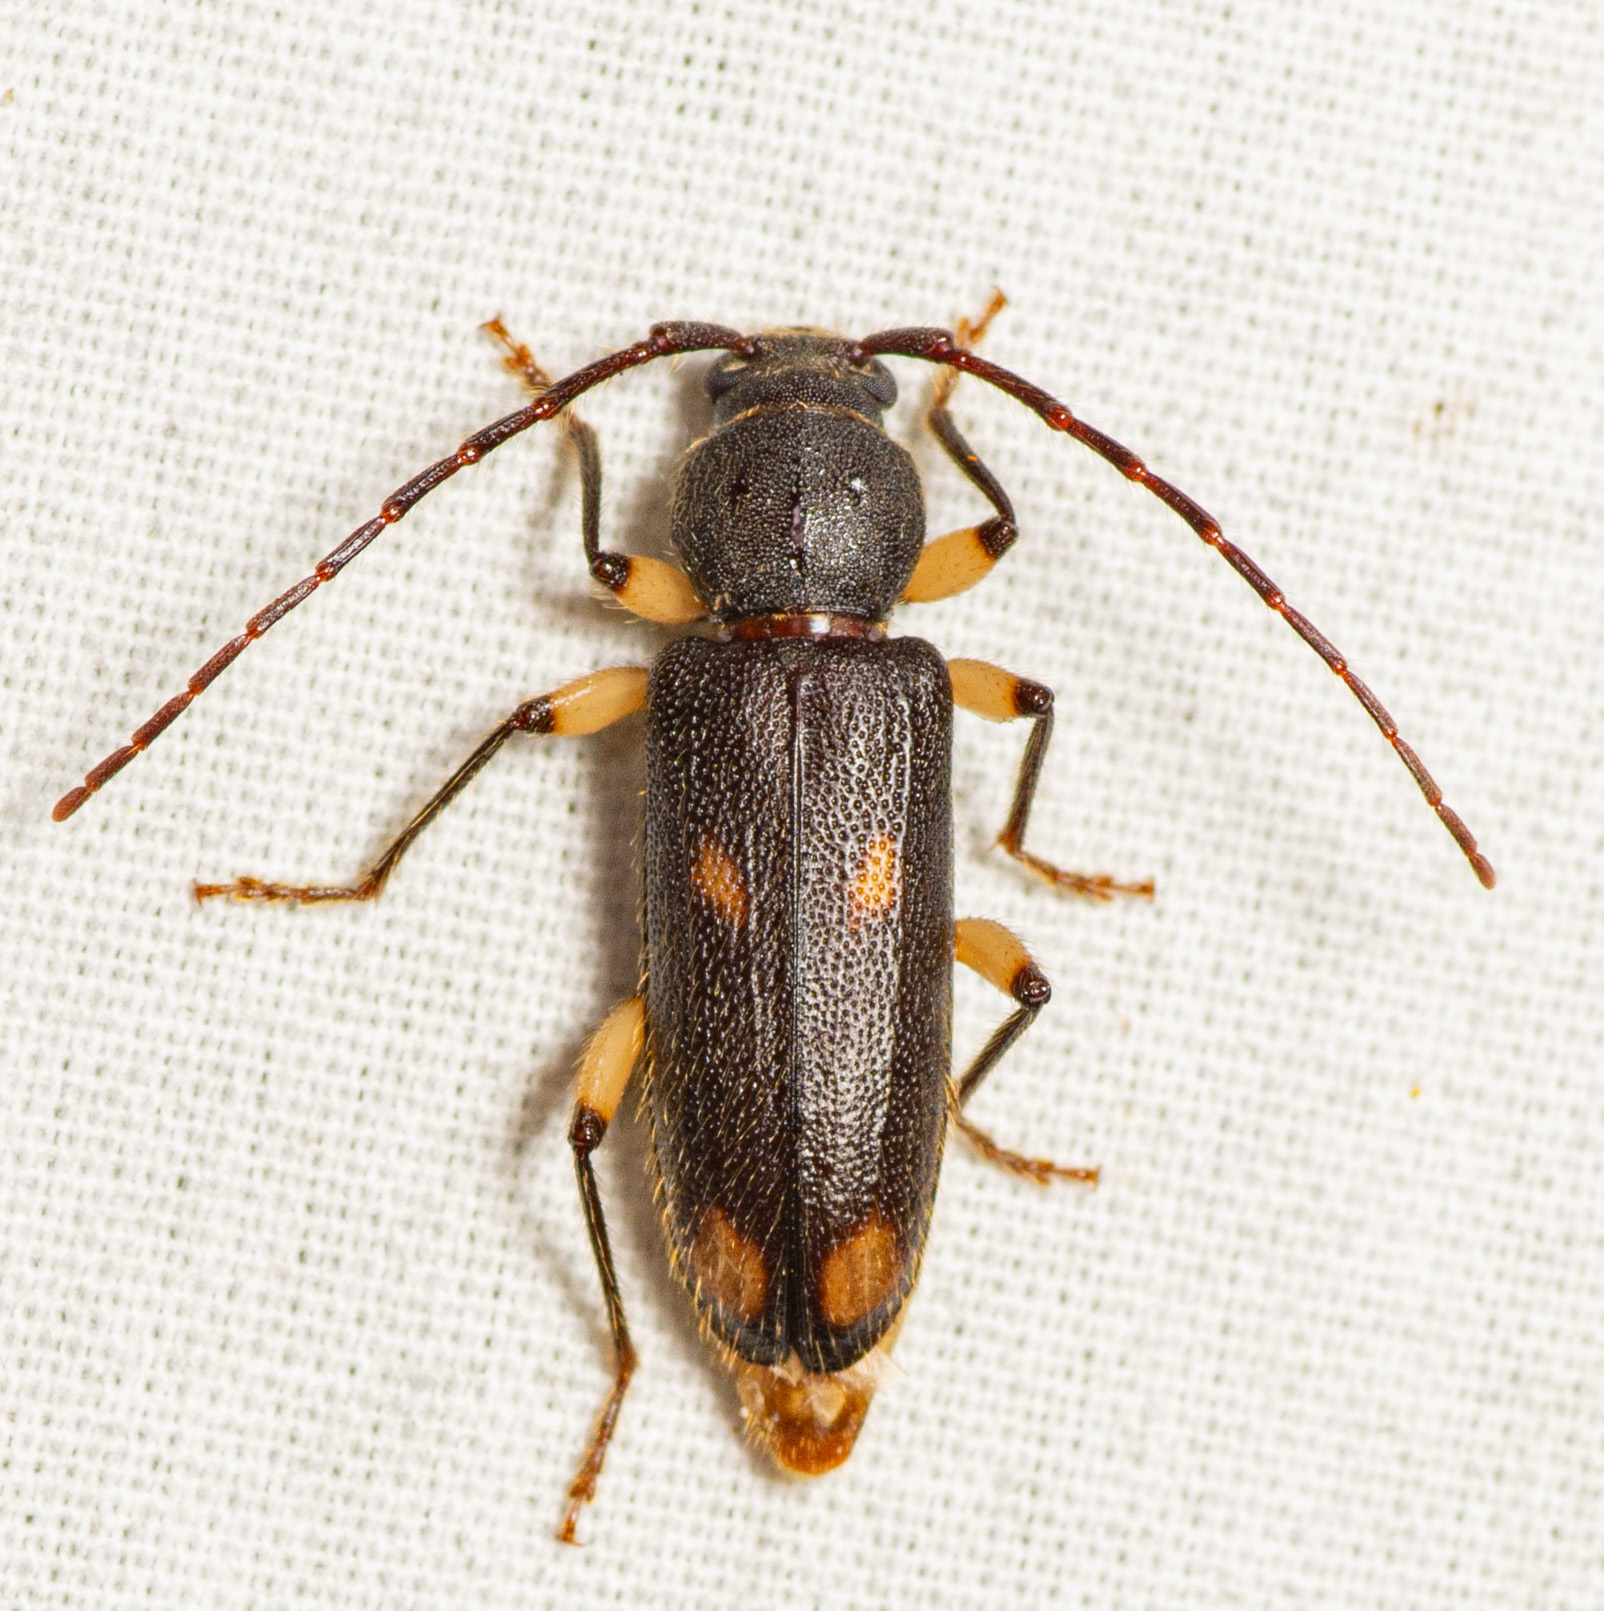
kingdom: Animalia
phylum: Arthropoda
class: Insecta
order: Coleoptera
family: Cerambycidae
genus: Tylonotus
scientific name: Tylonotus bimaculatus
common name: Ash and privet borer
